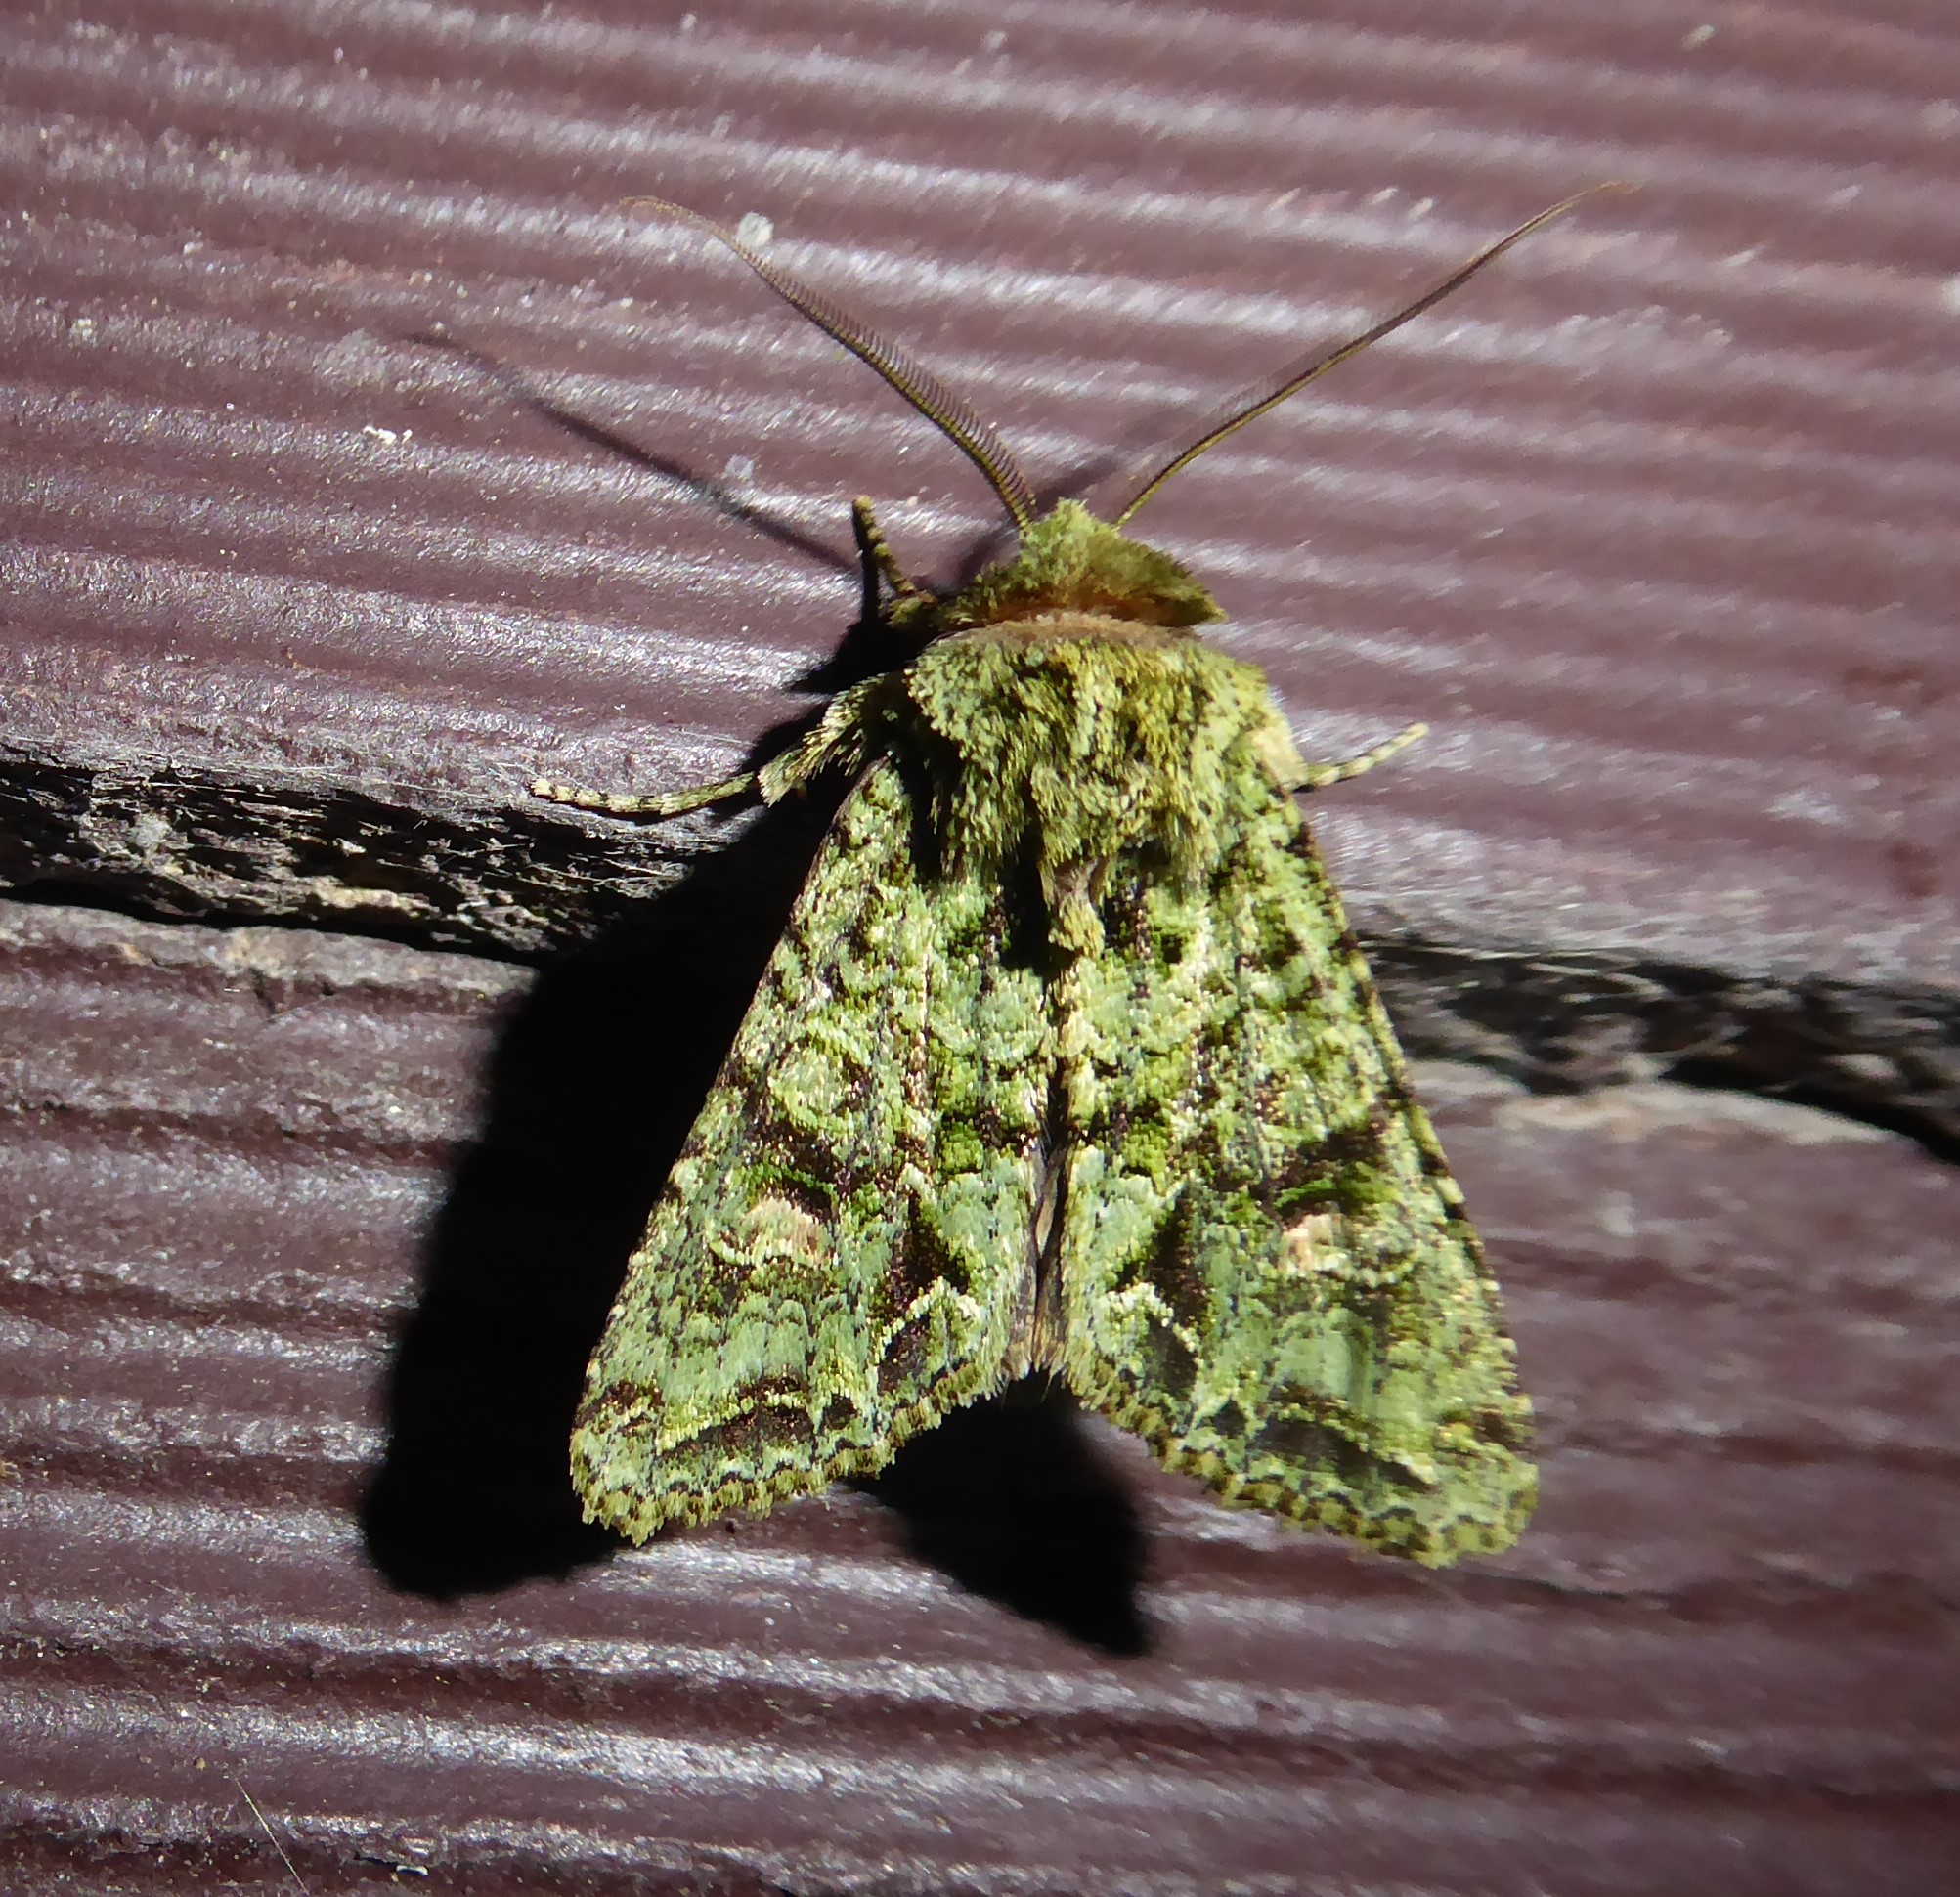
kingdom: Animalia
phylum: Arthropoda
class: Insecta
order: Lepidoptera
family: Noctuidae
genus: Ichneutica
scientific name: Ichneutica
